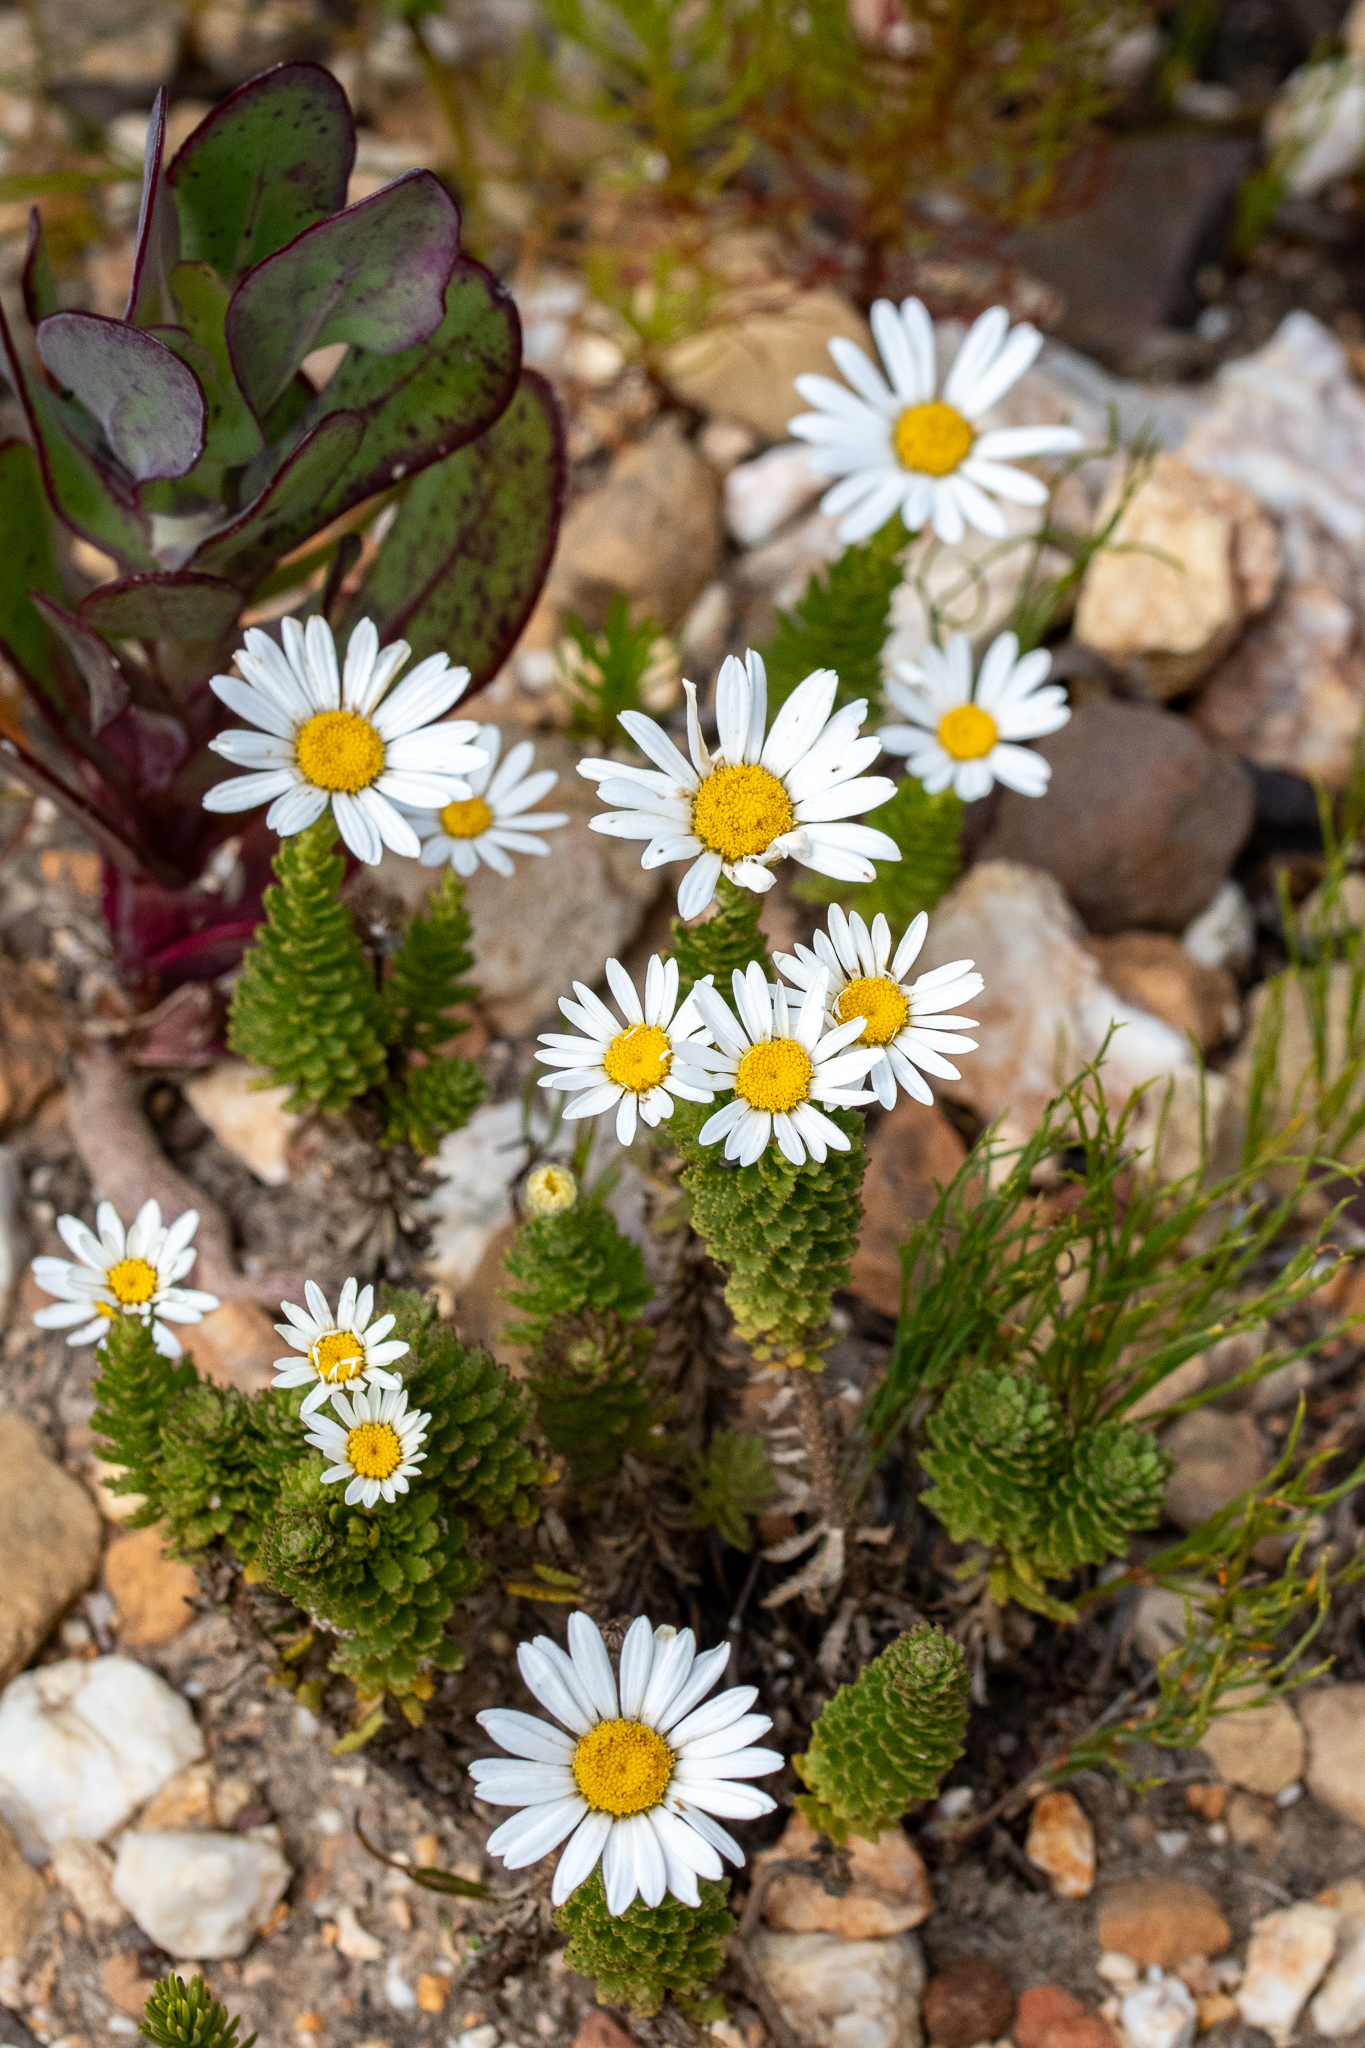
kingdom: Plantae
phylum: Tracheophyta
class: Magnoliopsida
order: Asterales
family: Asteraceae
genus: Osmitopsis
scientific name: Osmitopsis afra
